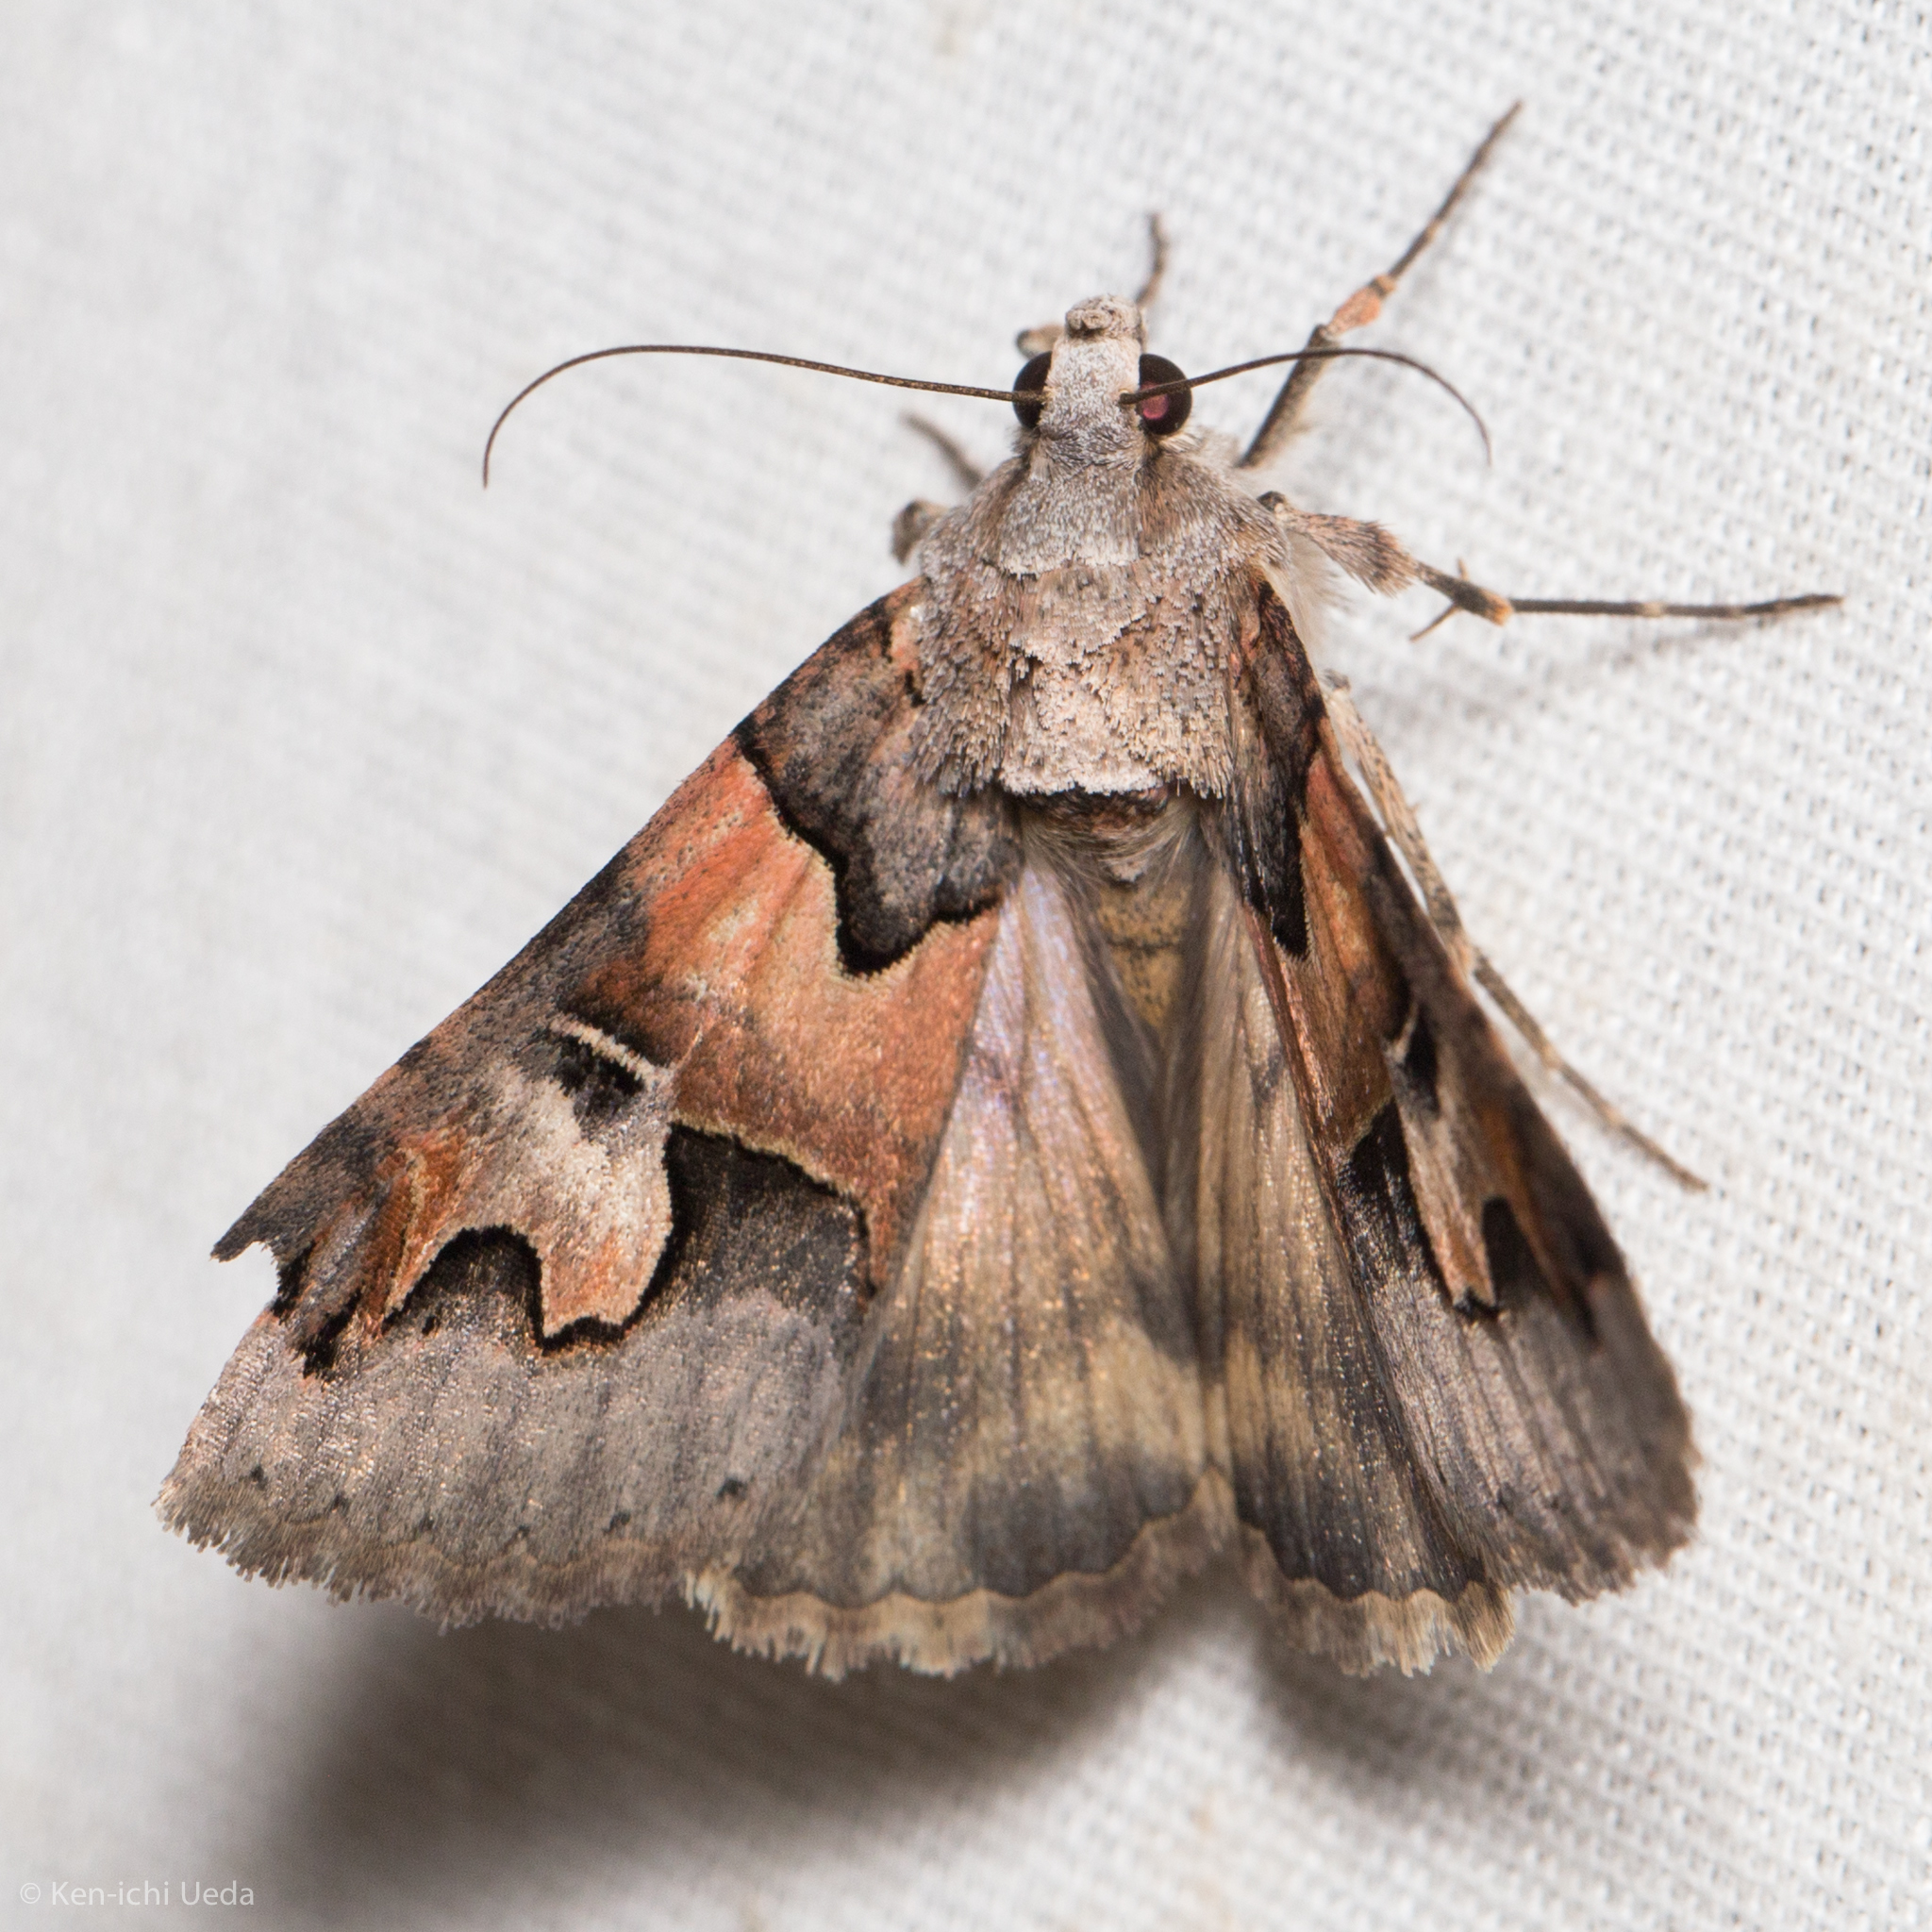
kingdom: Animalia
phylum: Arthropoda
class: Insecta
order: Lepidoptera
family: Erebidae
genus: Drasteria
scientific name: Drasteria fumosa
